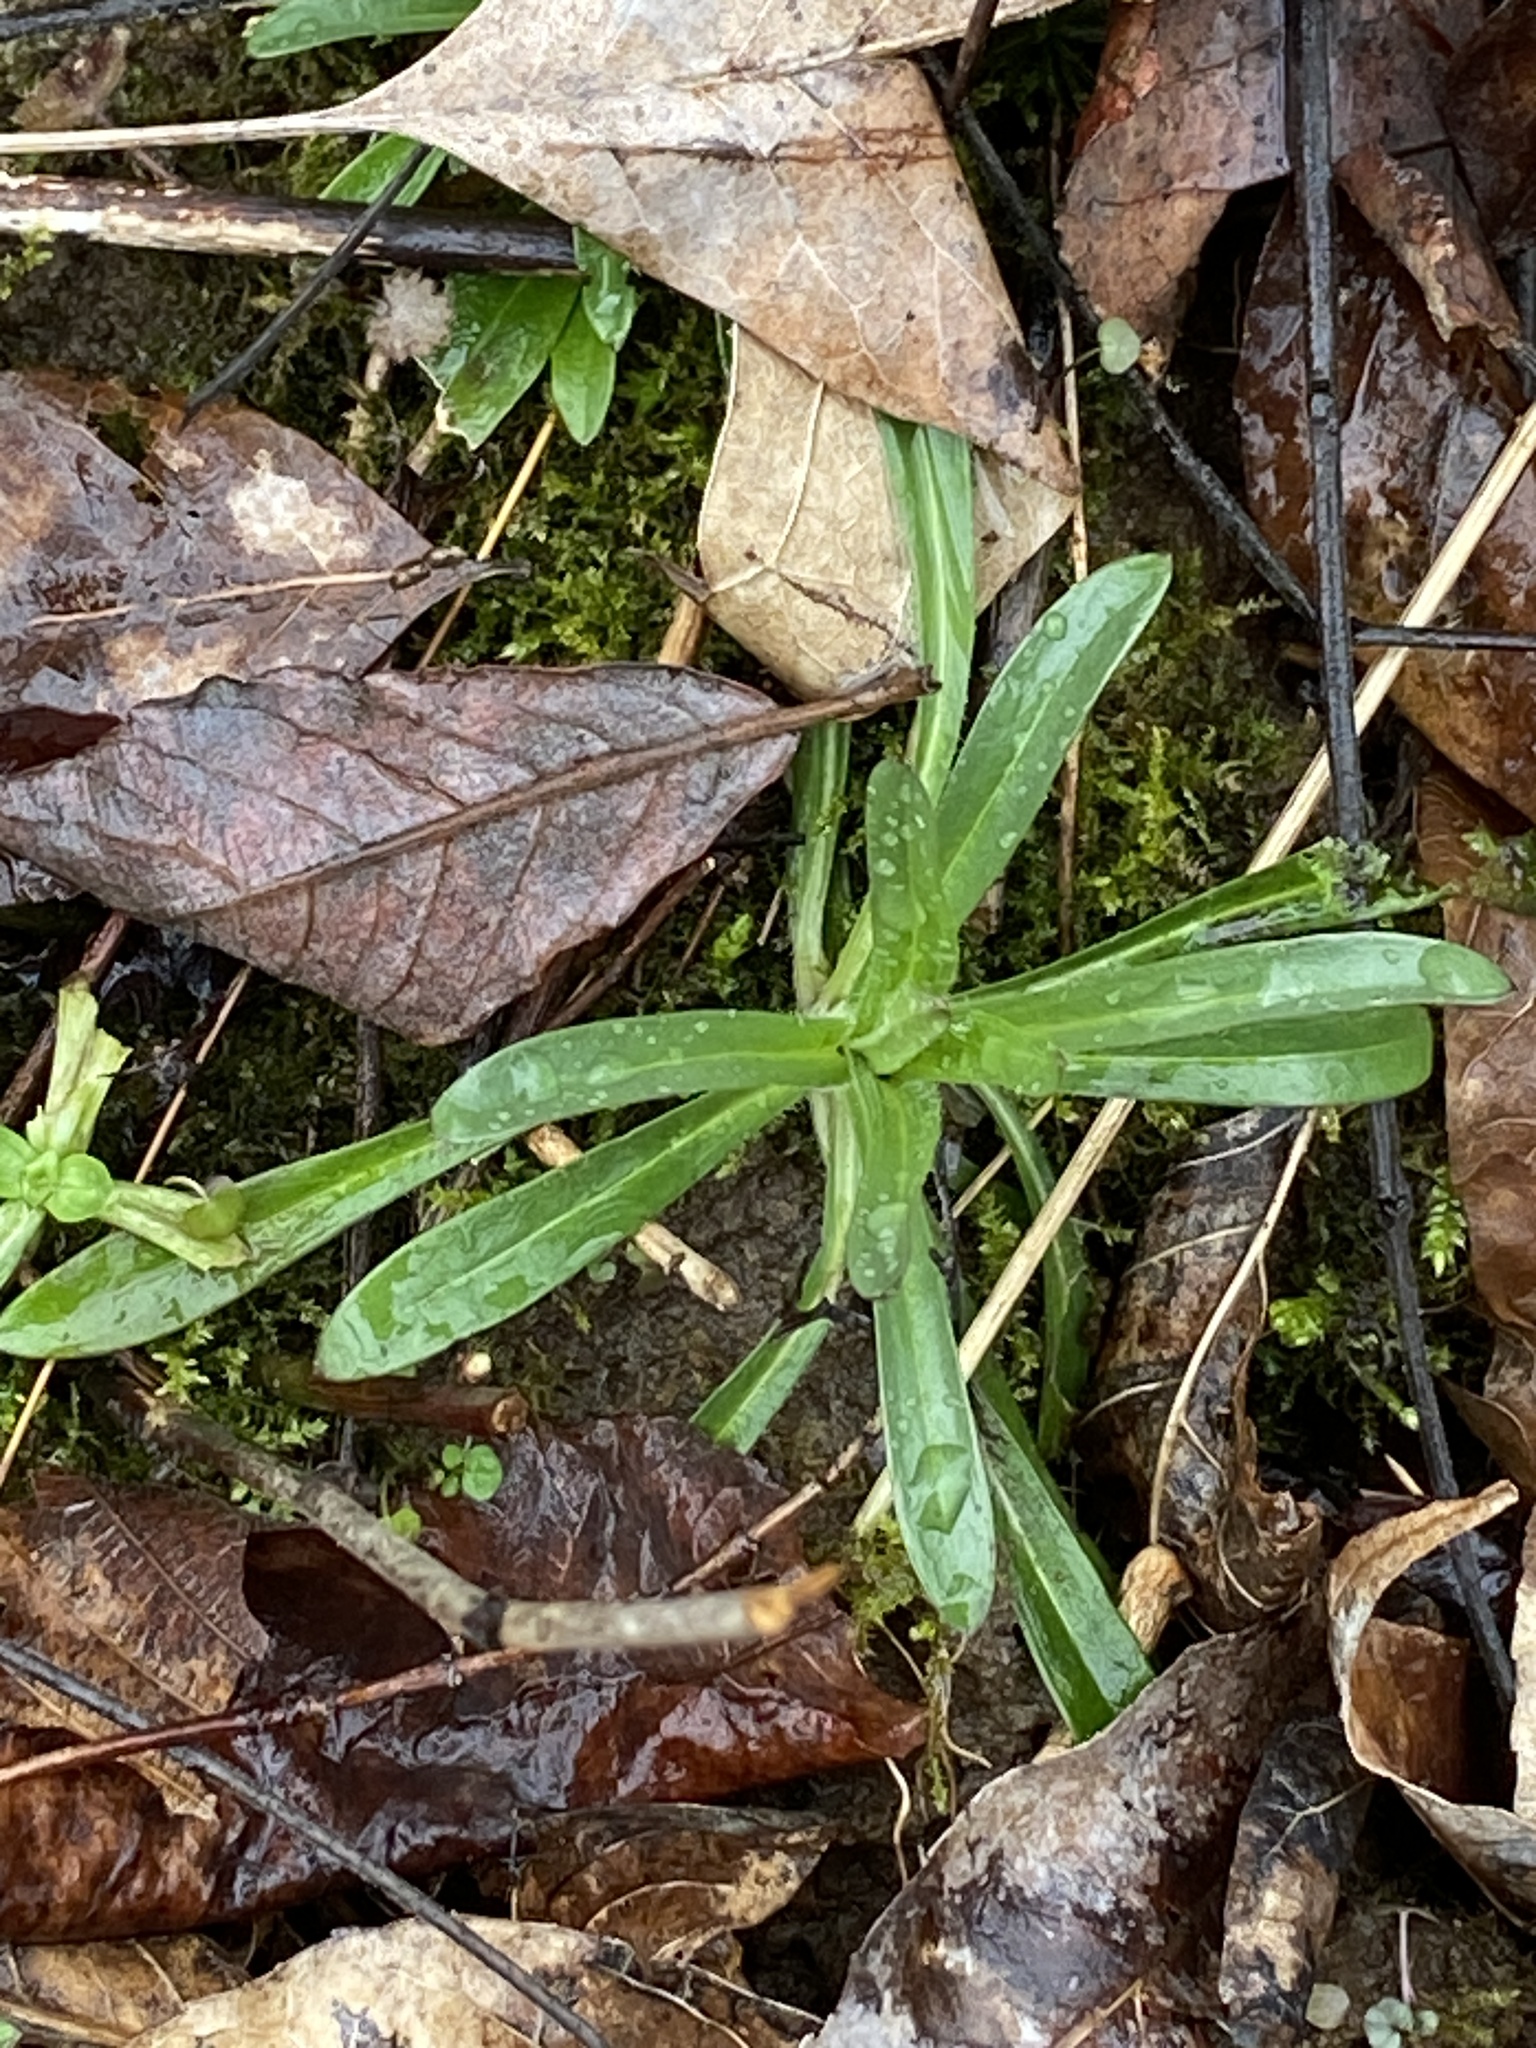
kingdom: Plantae
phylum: Tracheophyta
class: Magnoliopsida
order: Caryophyllales
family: Caryophyllaceae
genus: Dianthus
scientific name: Dianthus armeria
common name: Deptford pink
